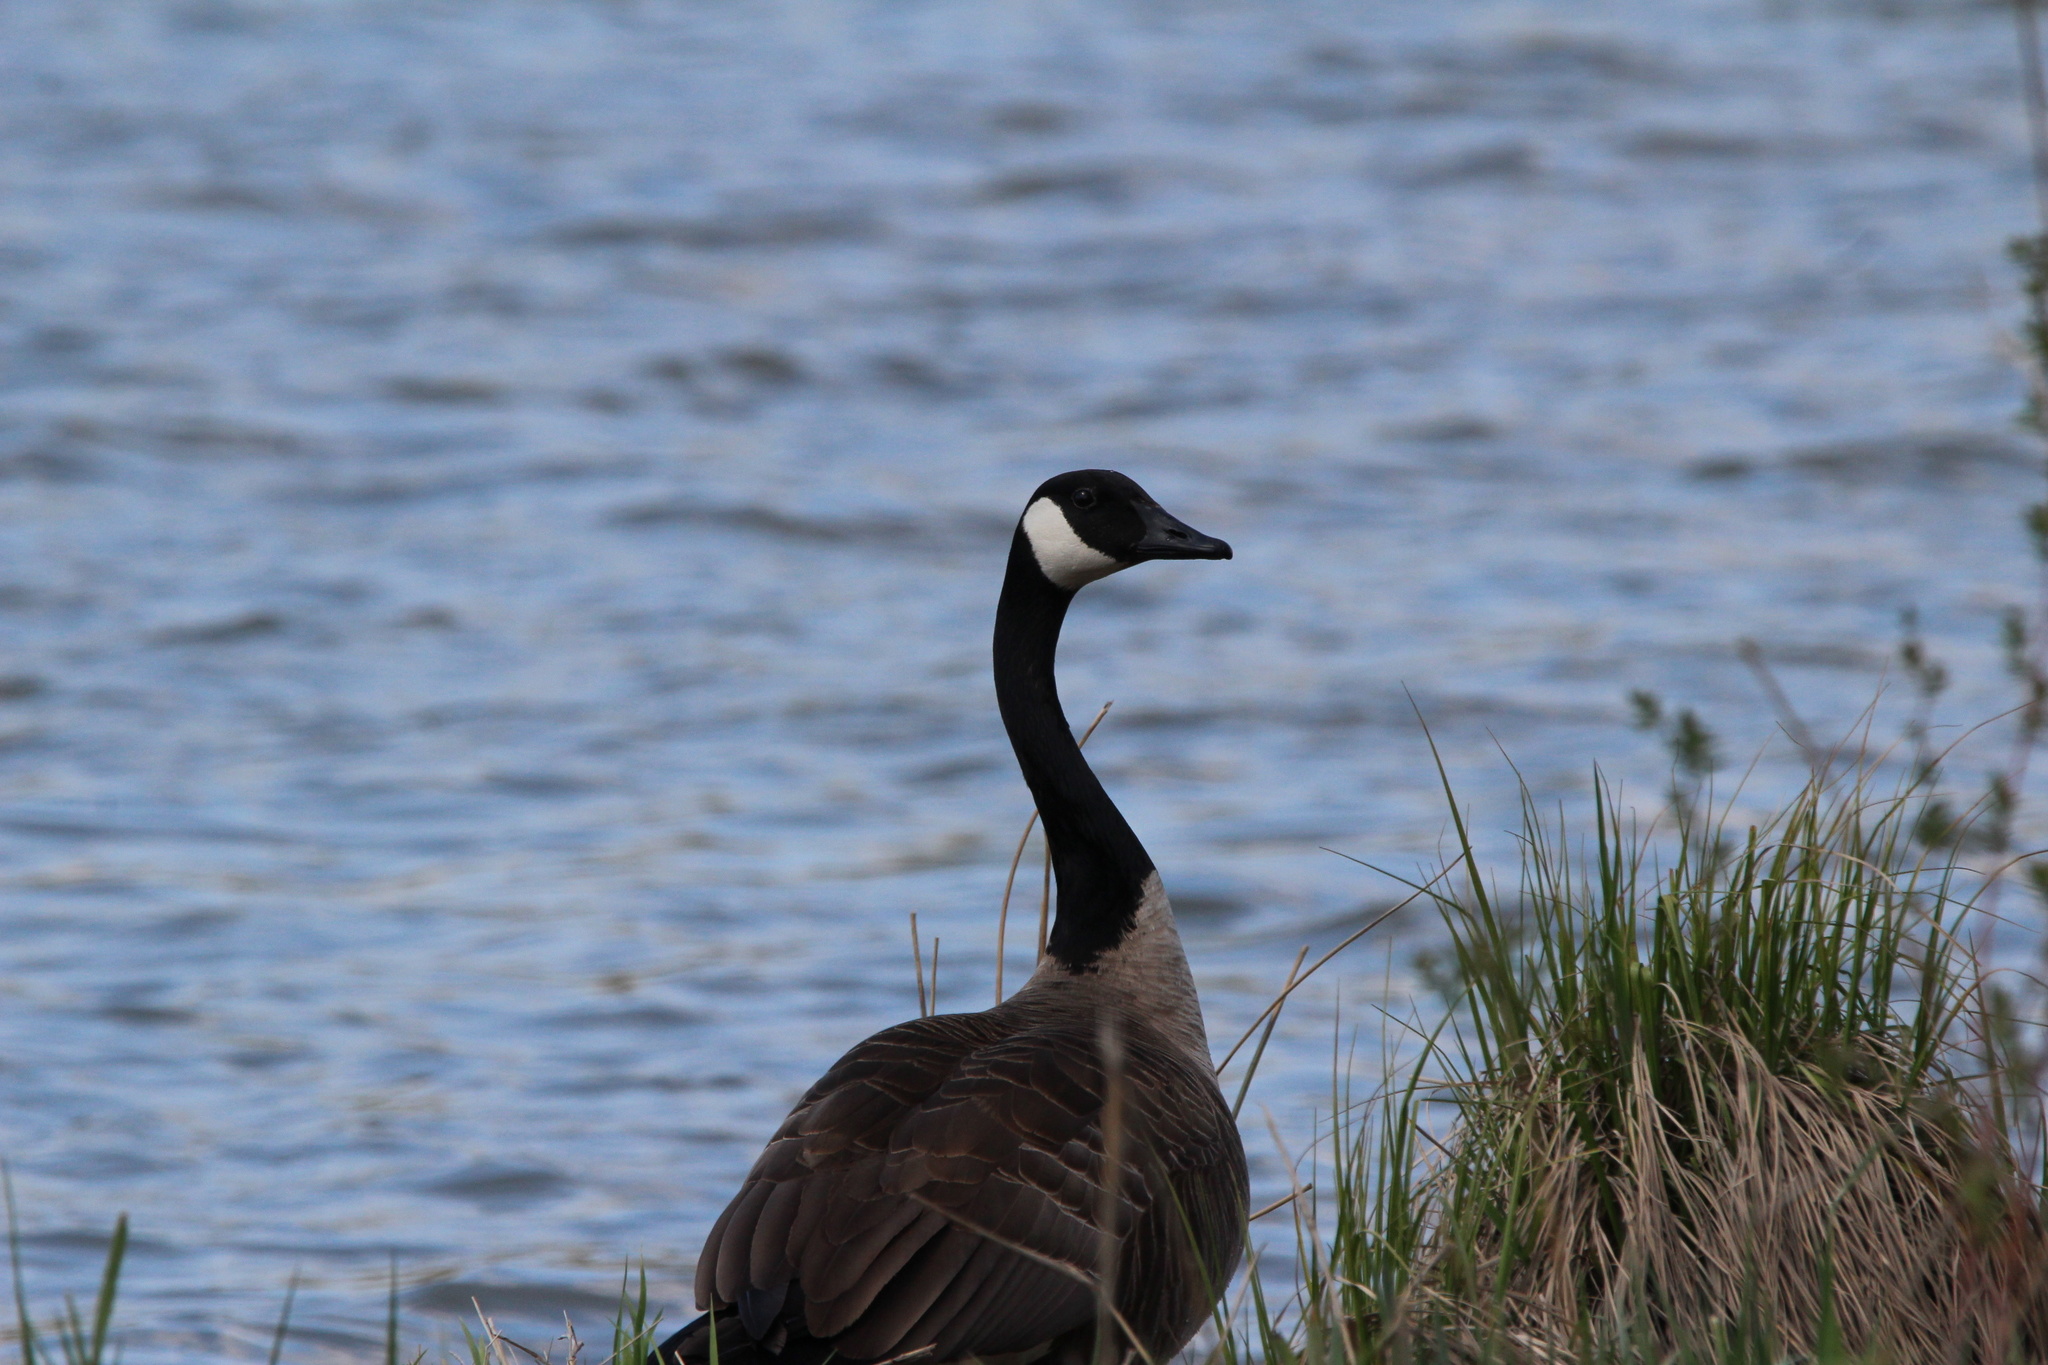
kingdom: Animalia
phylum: Chordata
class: Aves
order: Anseriformes
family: Anatidae
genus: Branta
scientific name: Branta canadensis
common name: Canada goose
